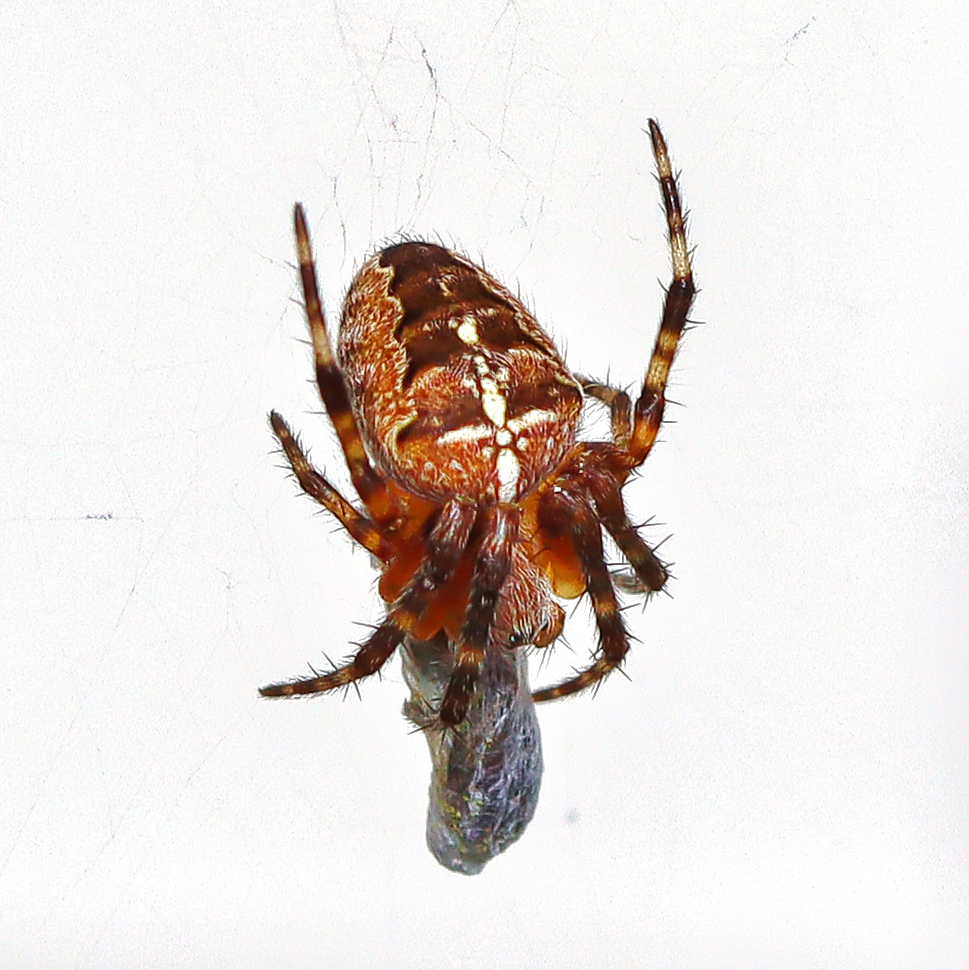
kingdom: Animalia
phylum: Arthropoda
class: Arachnida
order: Araneae
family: Araneidae
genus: Araneus
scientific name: Araneus diadematus
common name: Cross orbweaver
